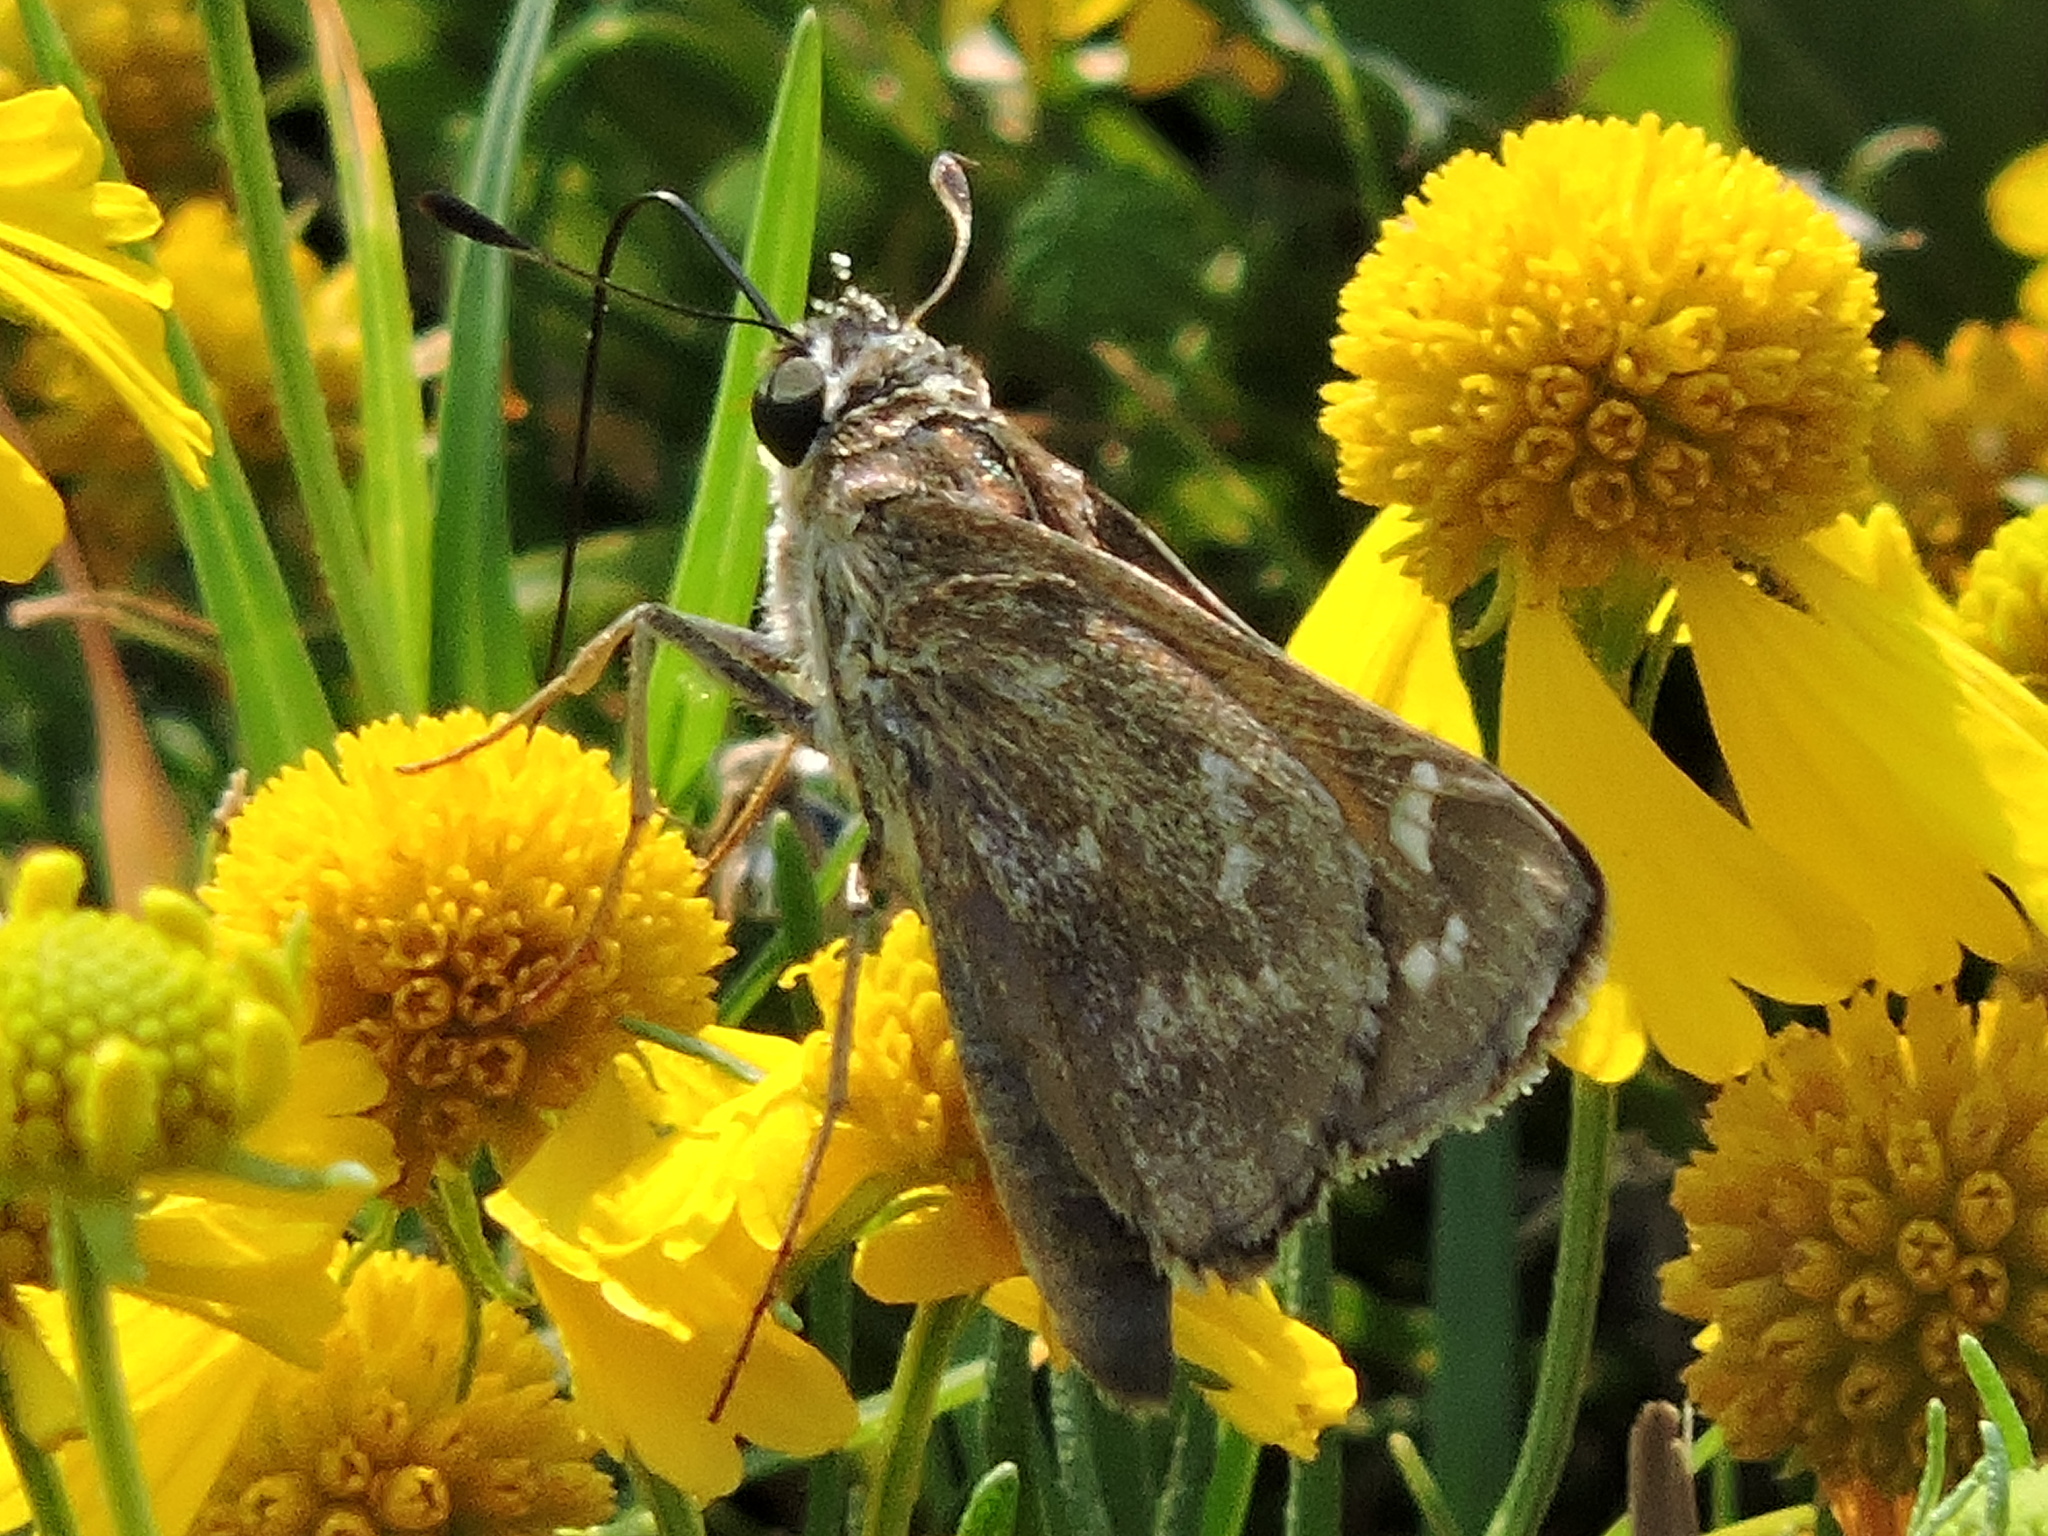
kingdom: Animalia
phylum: Arthropoda
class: Insecta
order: Lepidoptera
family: Hesperiidae
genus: Atalopedes
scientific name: Atalopedes
